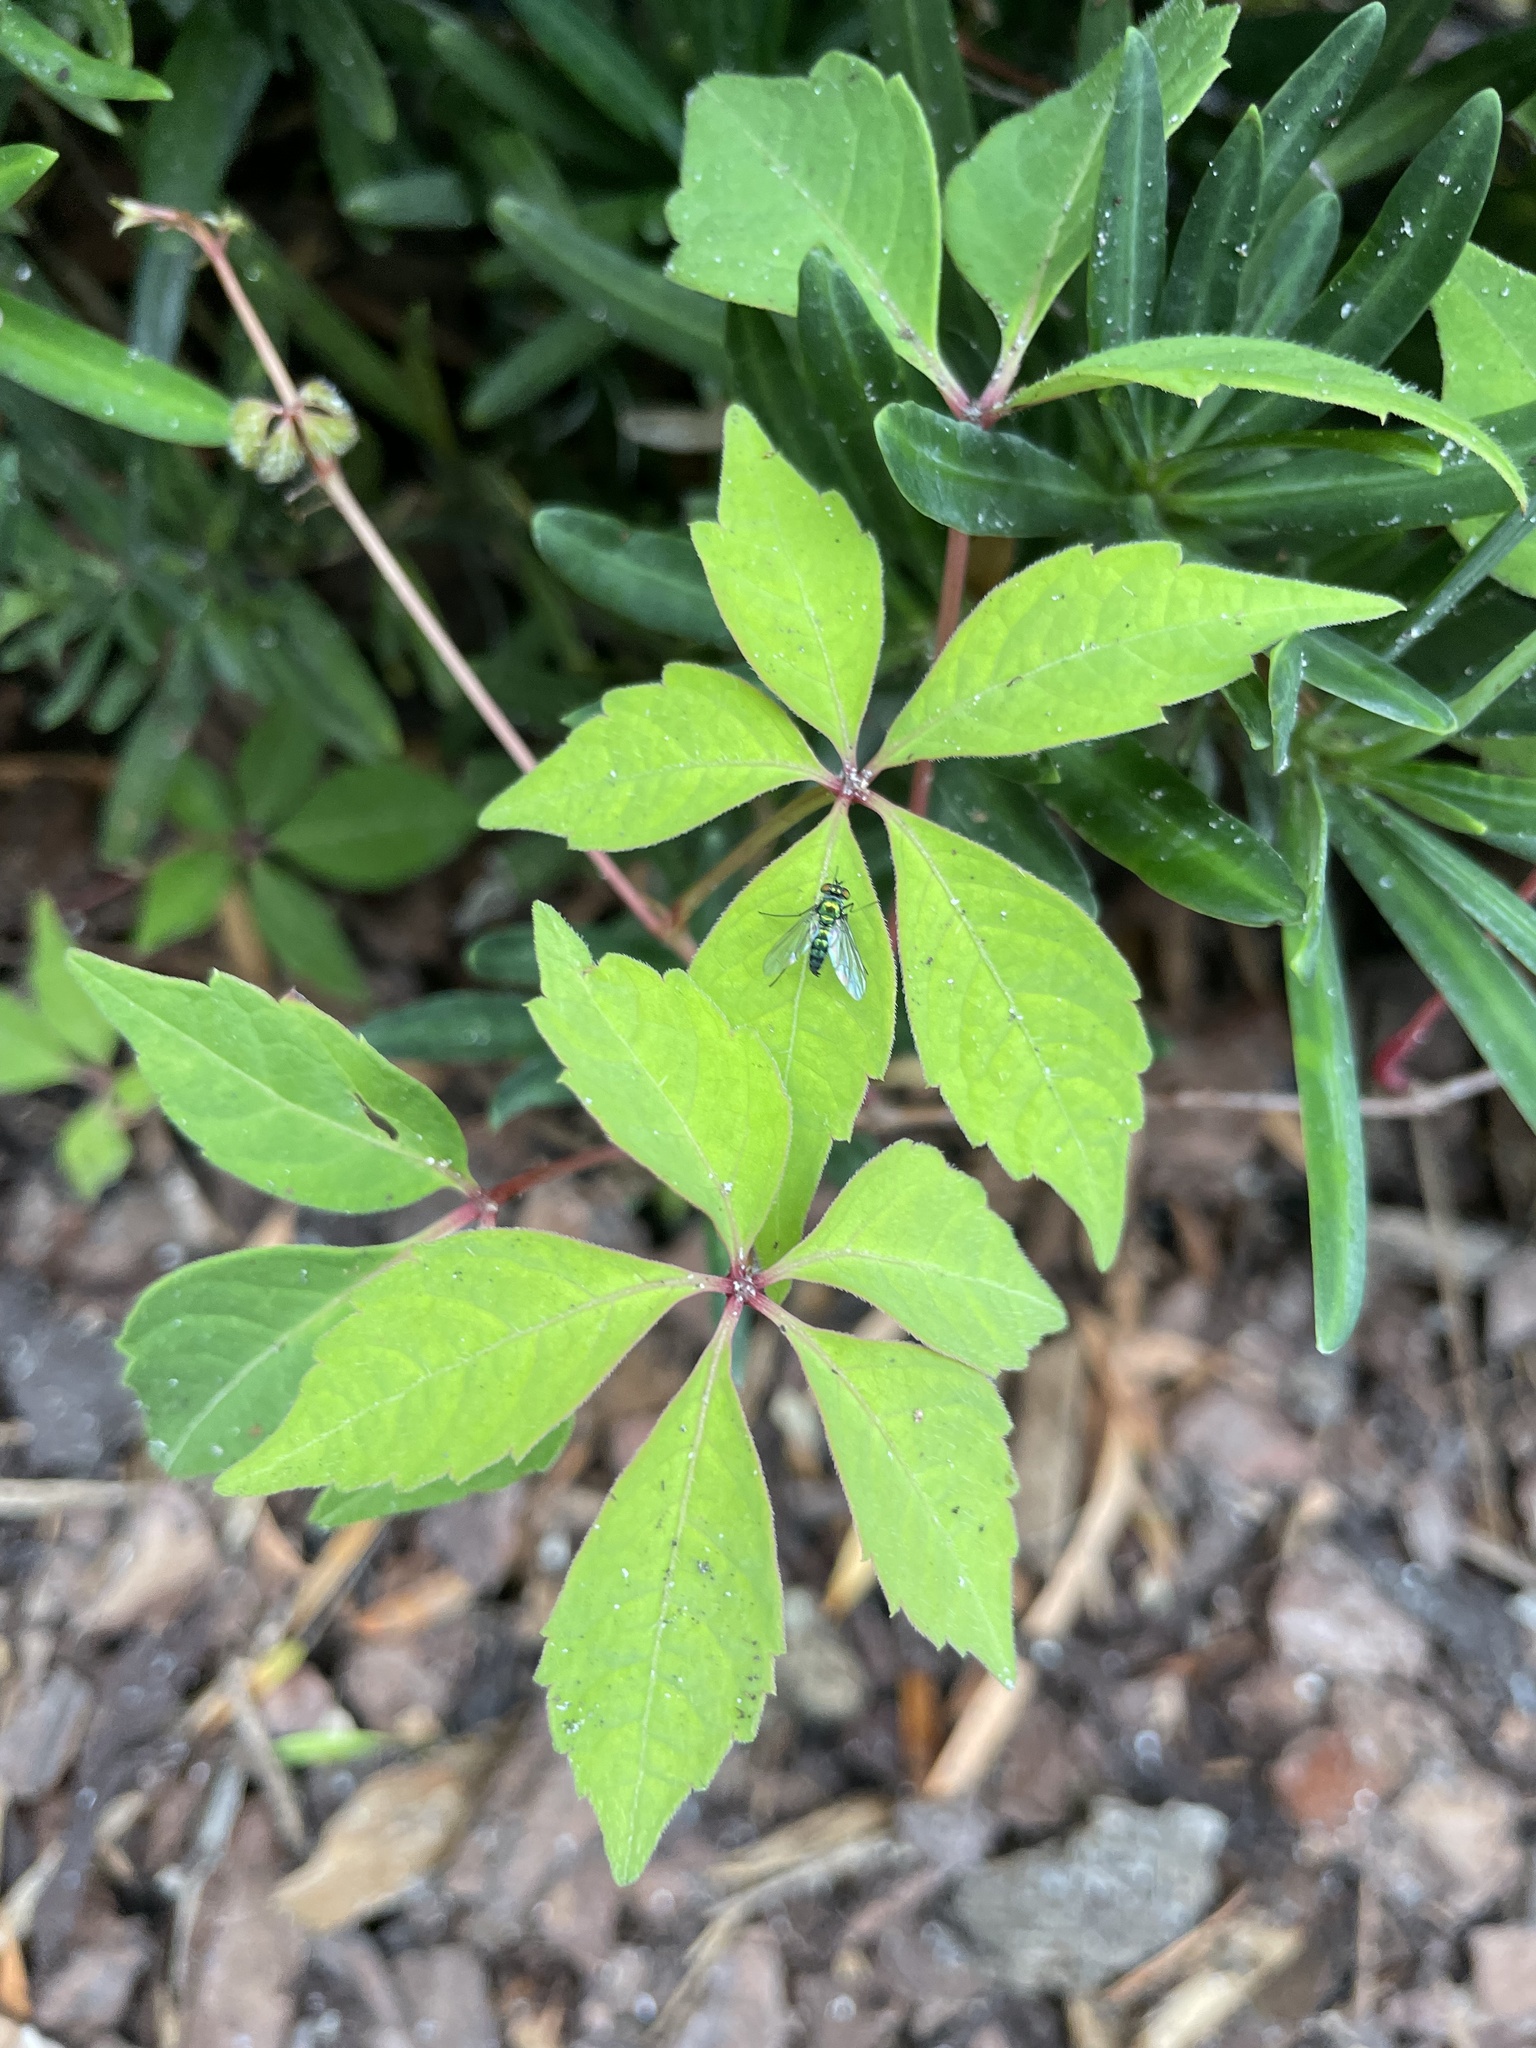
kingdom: Plantae
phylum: Tracheophyta
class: Magnoliopsida
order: Vitales
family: Vitaceae
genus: Parthenocissus
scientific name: Parthenocissus quinquefolia
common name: Virginia-creeper
